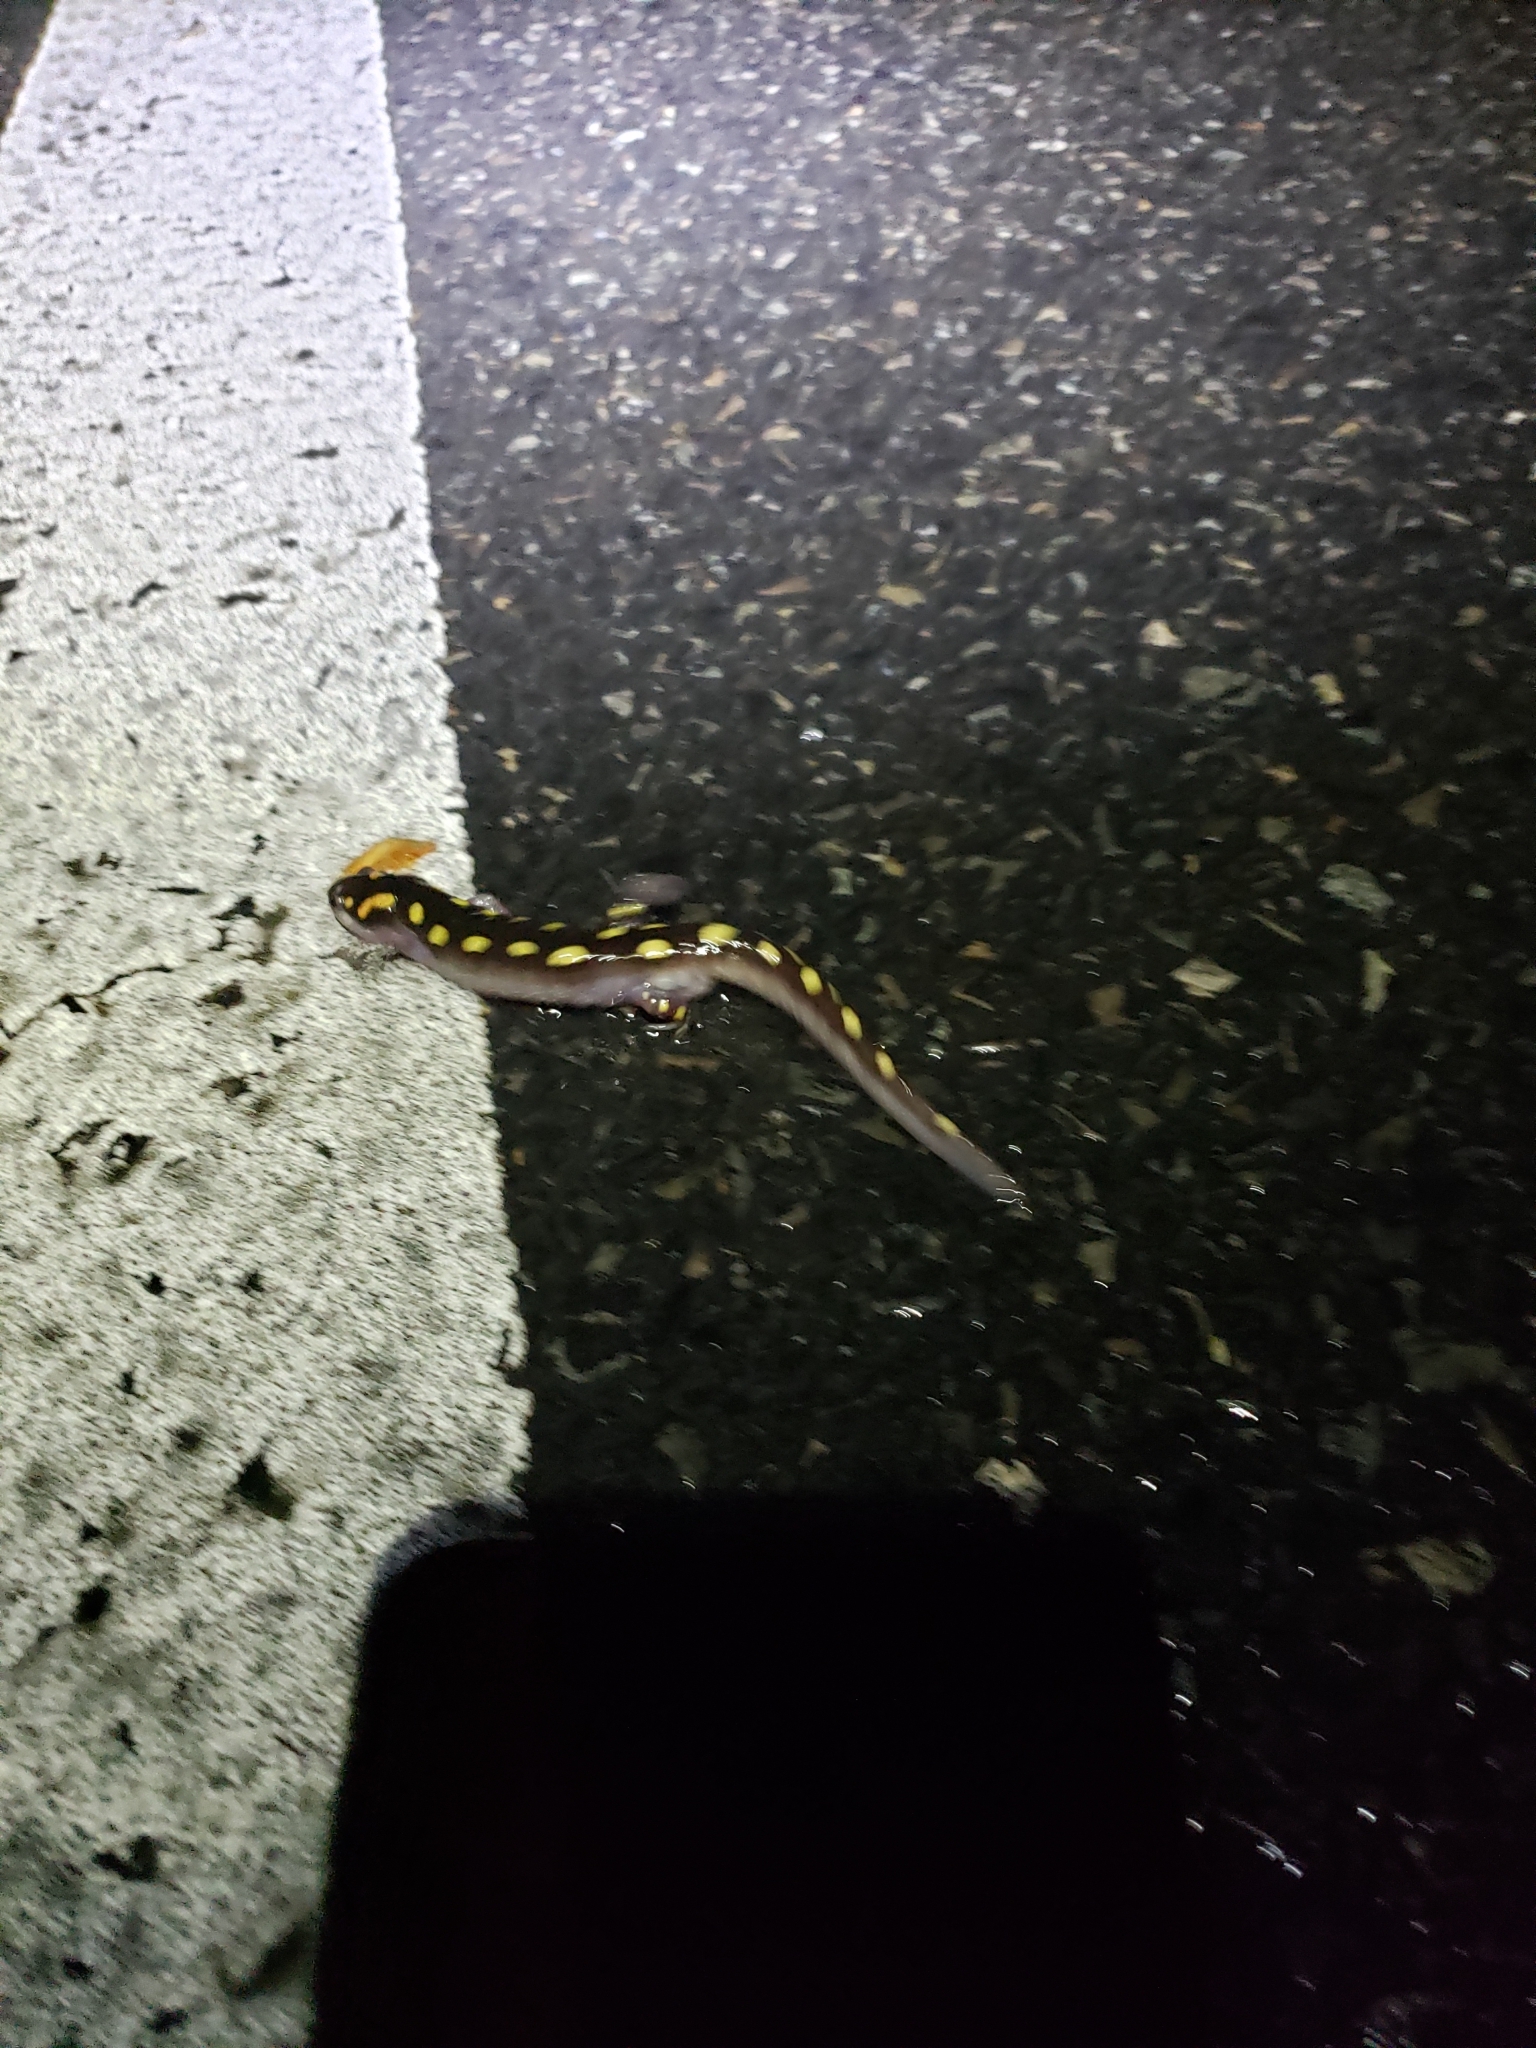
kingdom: Animalia
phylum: Chordata
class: Amphibia
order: Caudata
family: Ambystomatidae
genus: Ambystoma
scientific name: Ambystoma maculatum
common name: Spotted salamander
